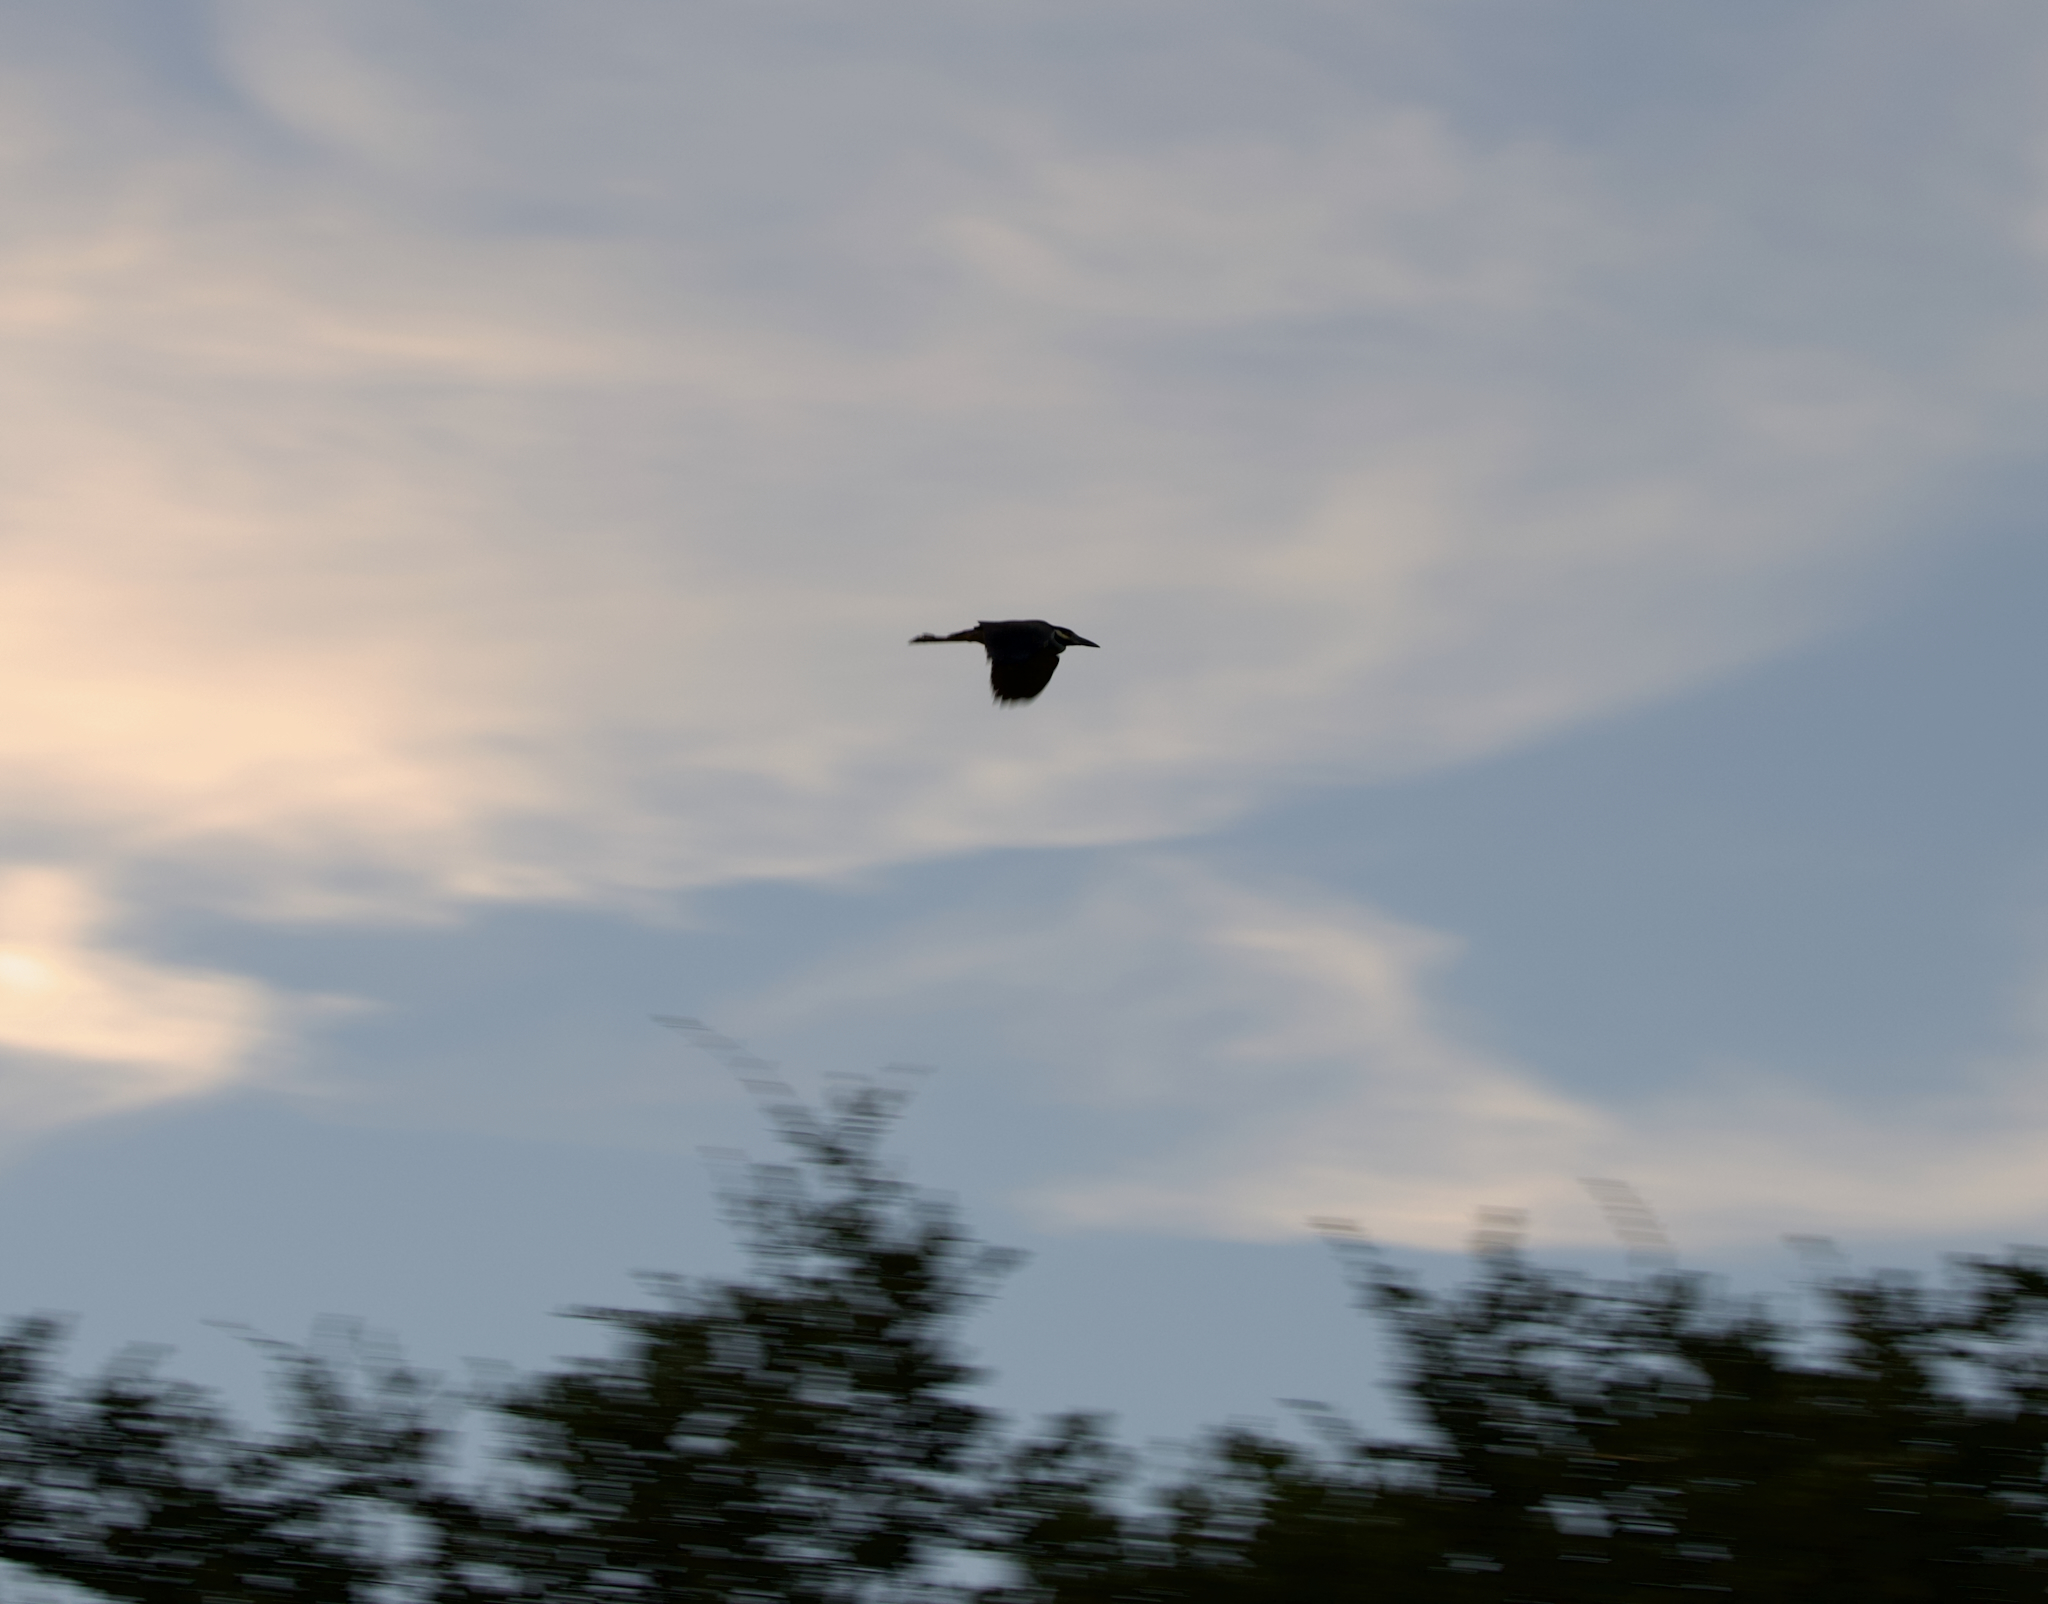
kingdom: Animalia
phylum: Chordata
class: Aves
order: Pelecaniformes
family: Ardeidae
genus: Butorides
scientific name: Butorides virescens
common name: Green heron
